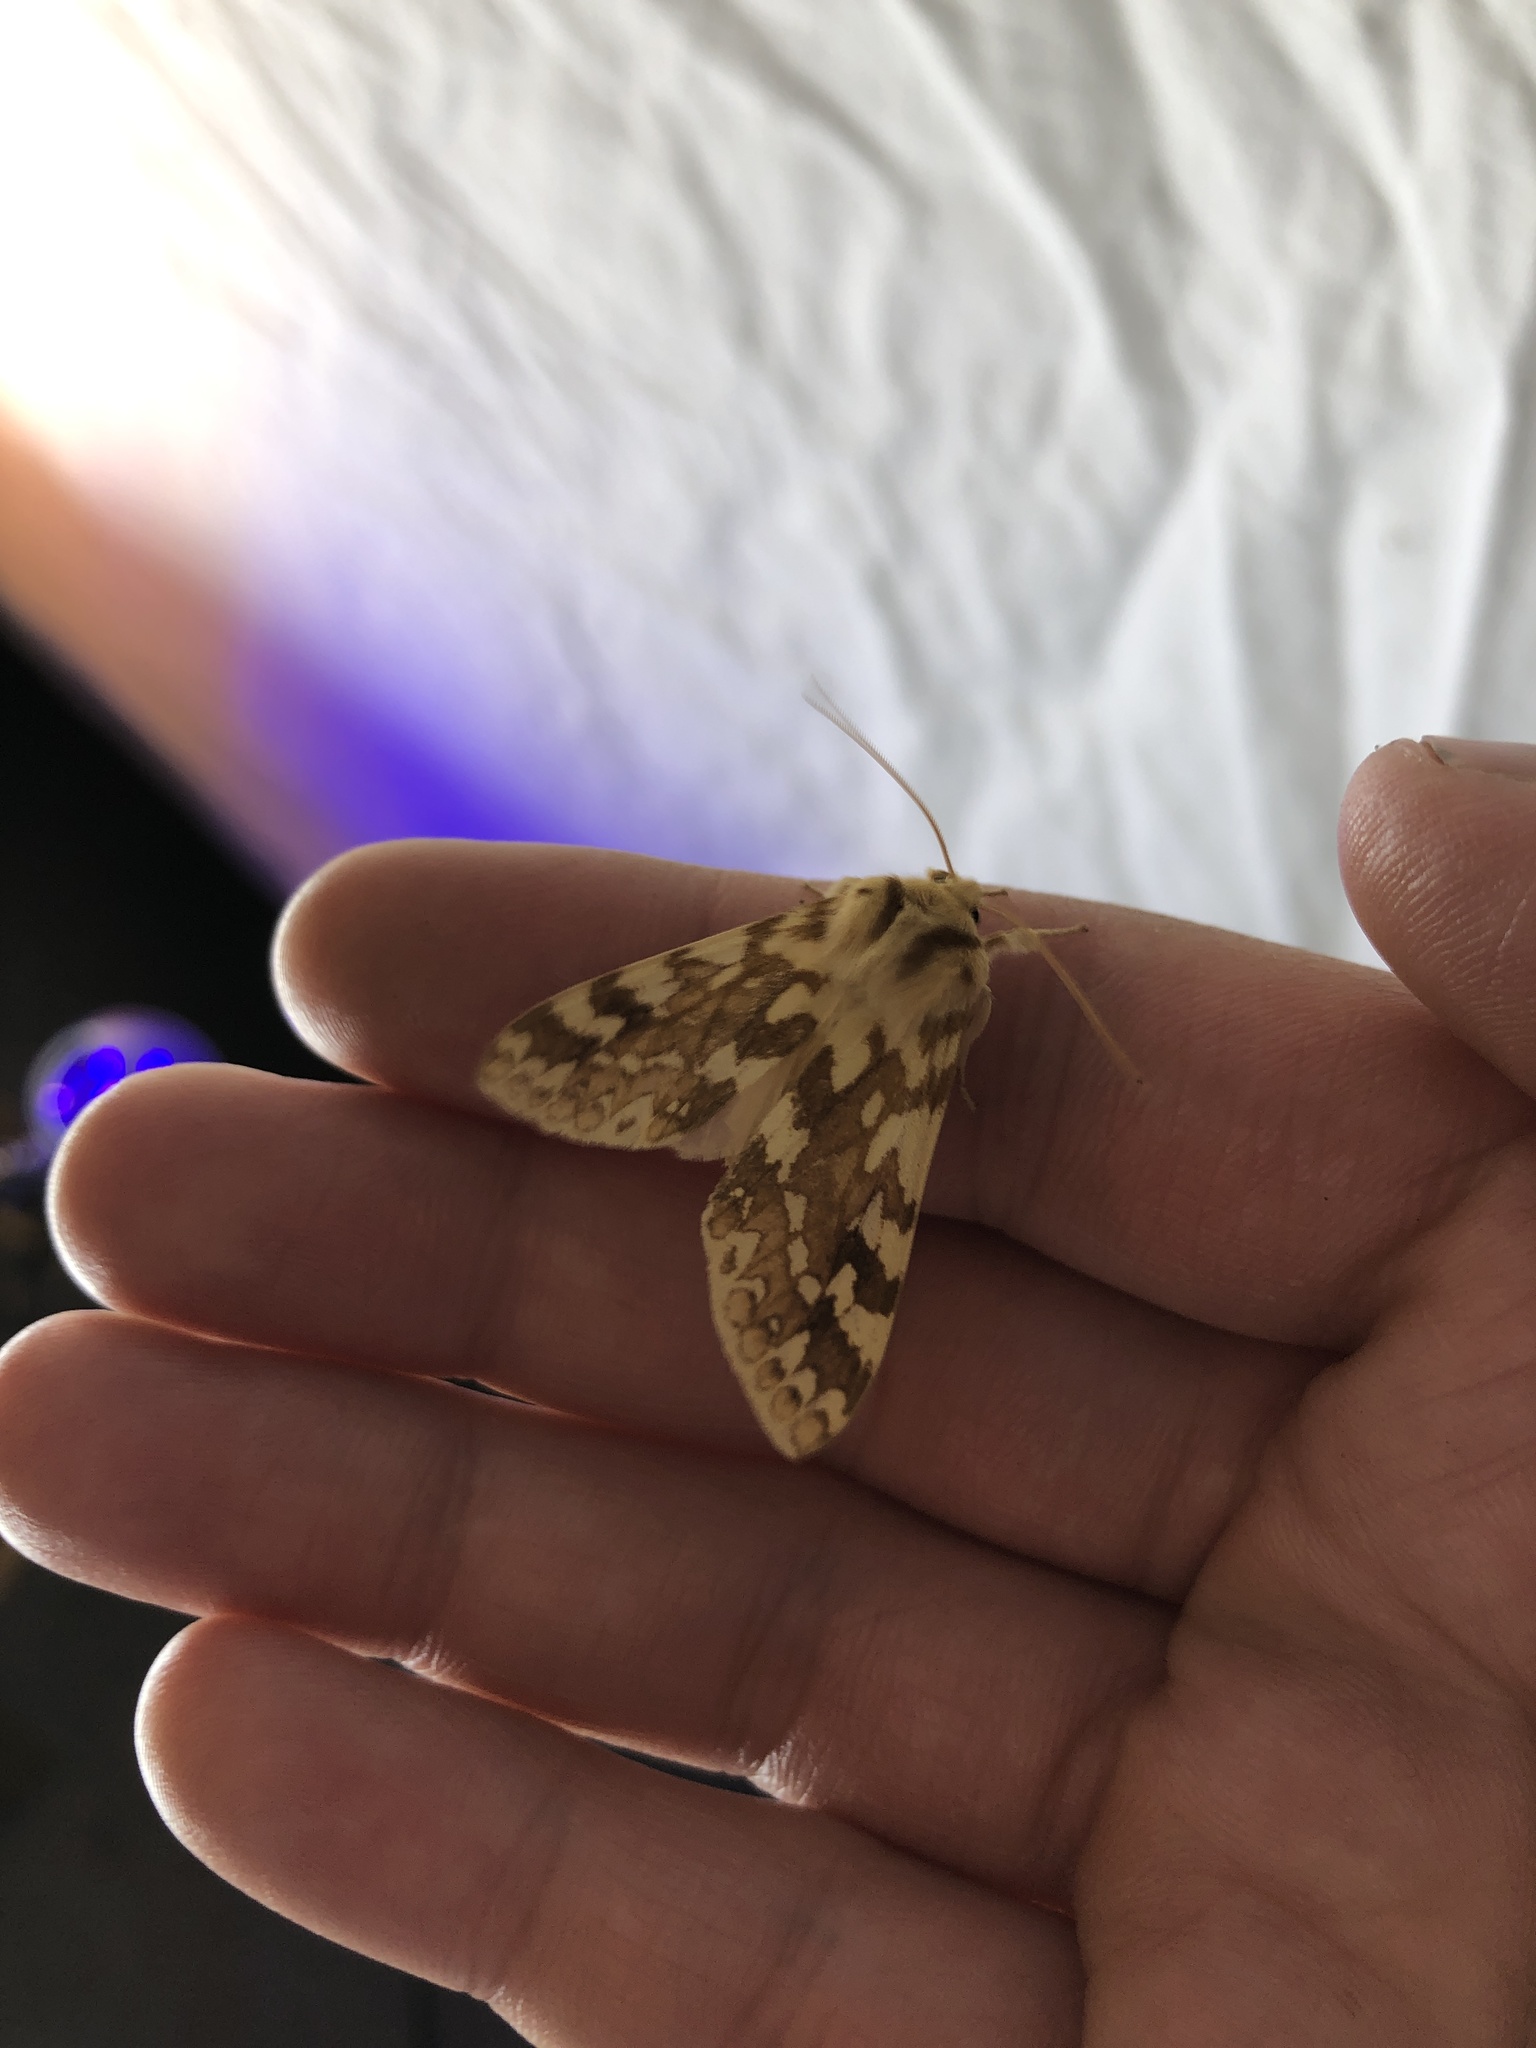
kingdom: Animalia
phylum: Arthropoda
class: Insecta
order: Lepidoptera
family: Erebidae
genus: Lophocampa
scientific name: Lophocampa maculata
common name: Spotted tussock moth
